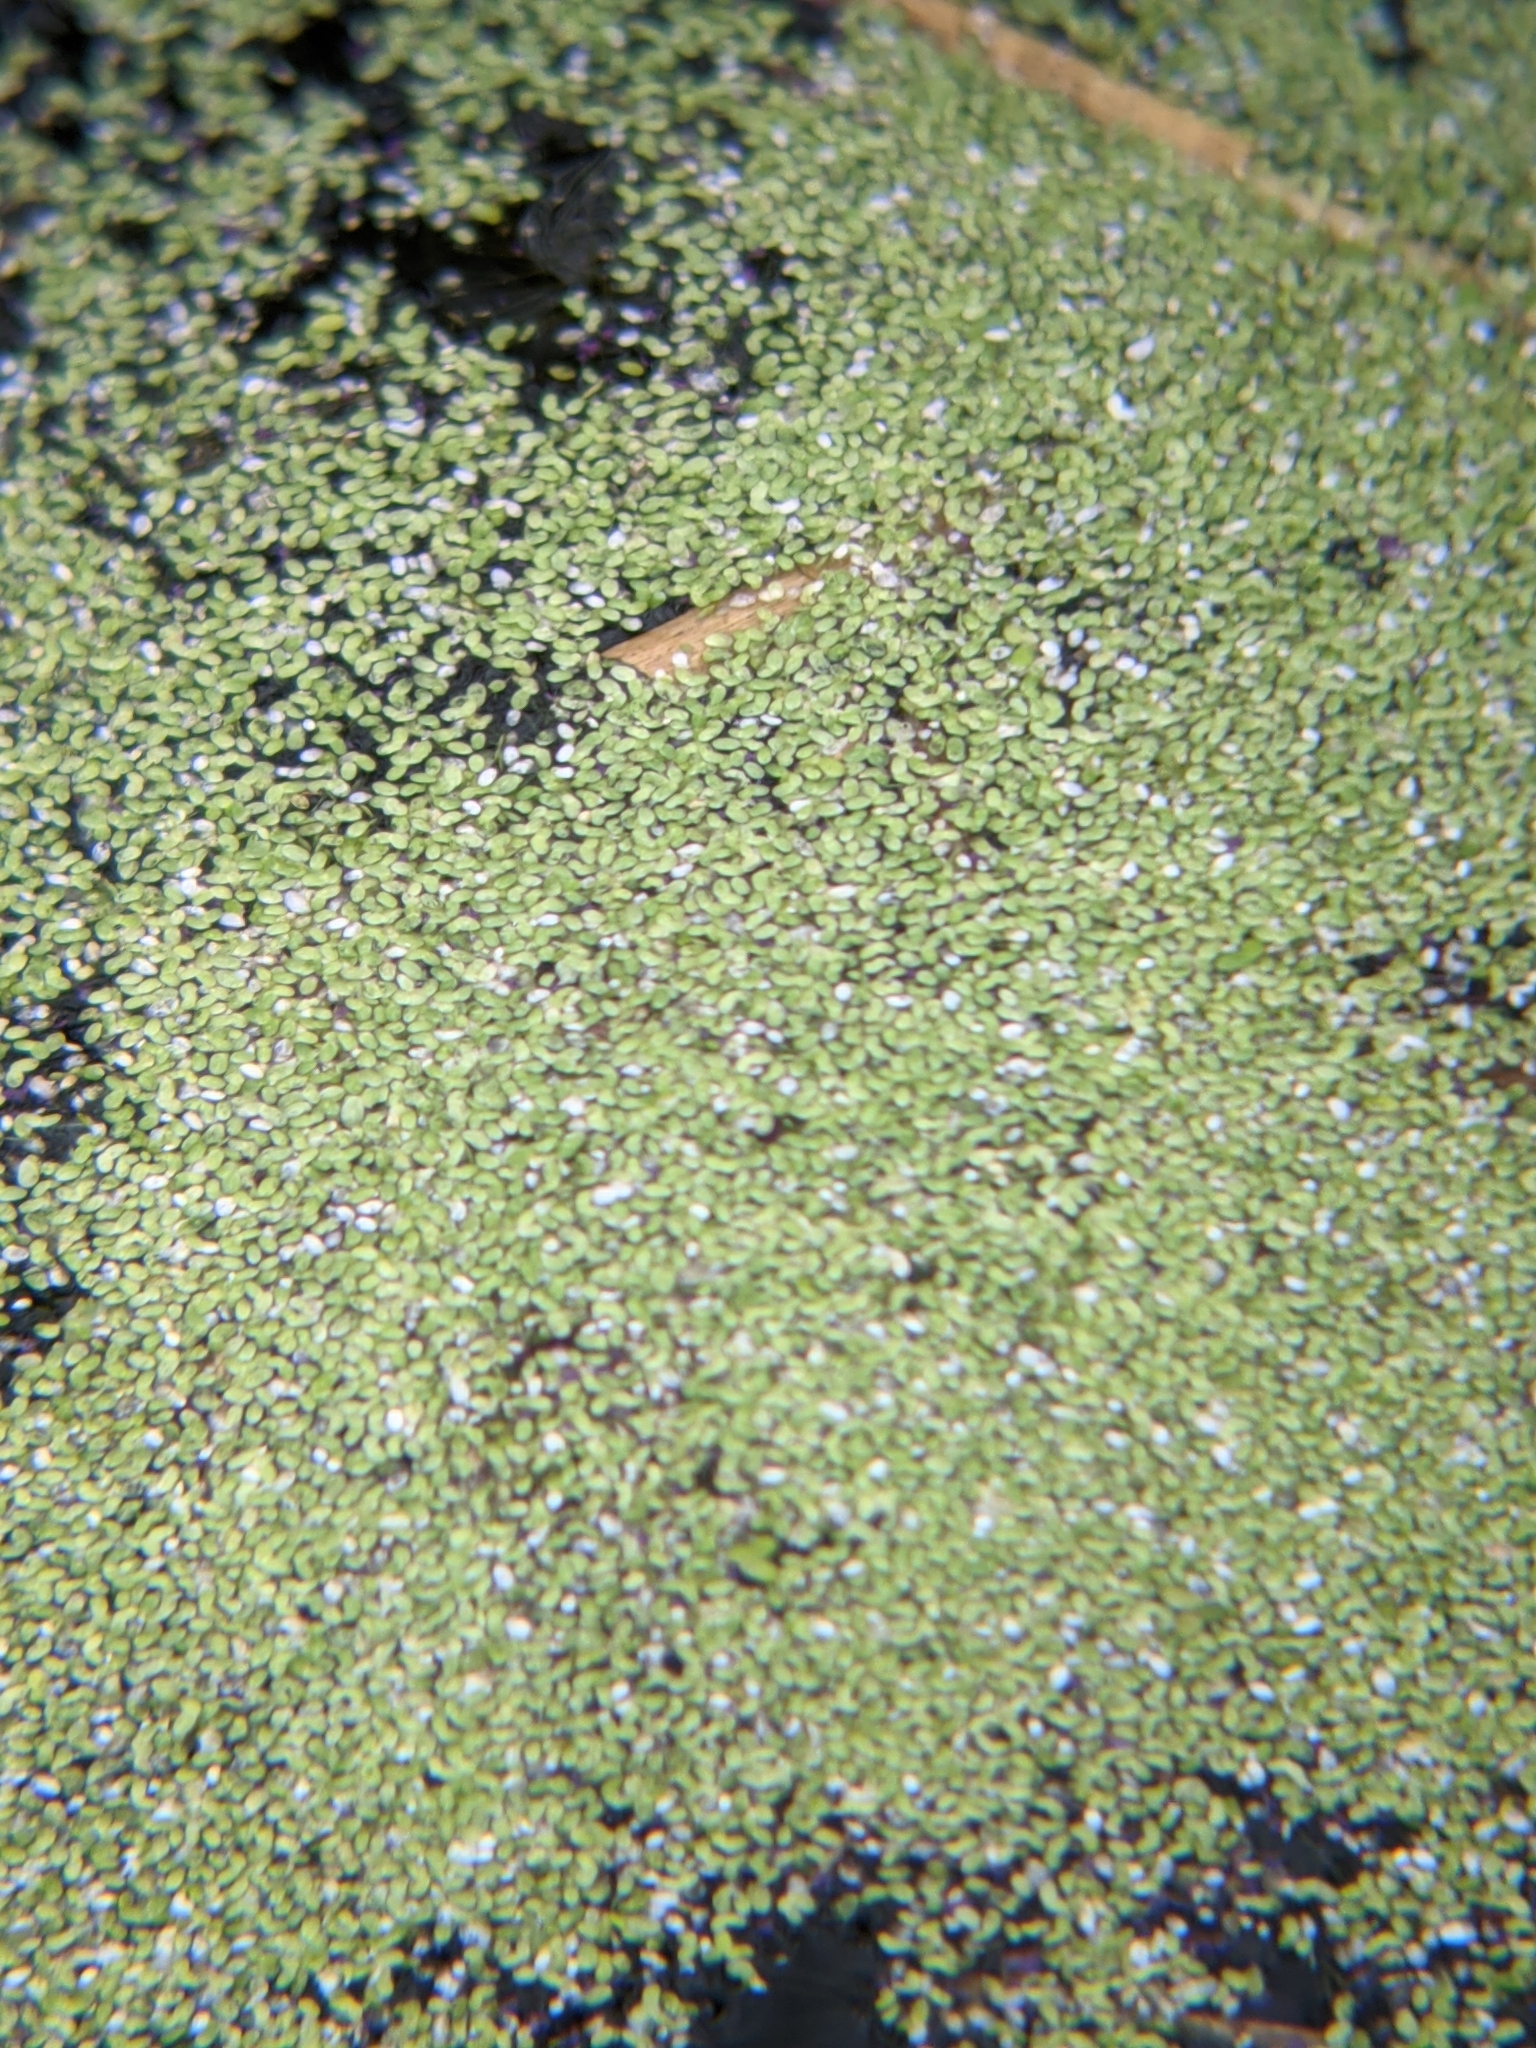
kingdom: Plantae
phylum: Tracheophyta
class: Liliopsida
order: Alismatales
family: Araceae
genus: Lemna
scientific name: Lemna minor
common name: Common duckweed
